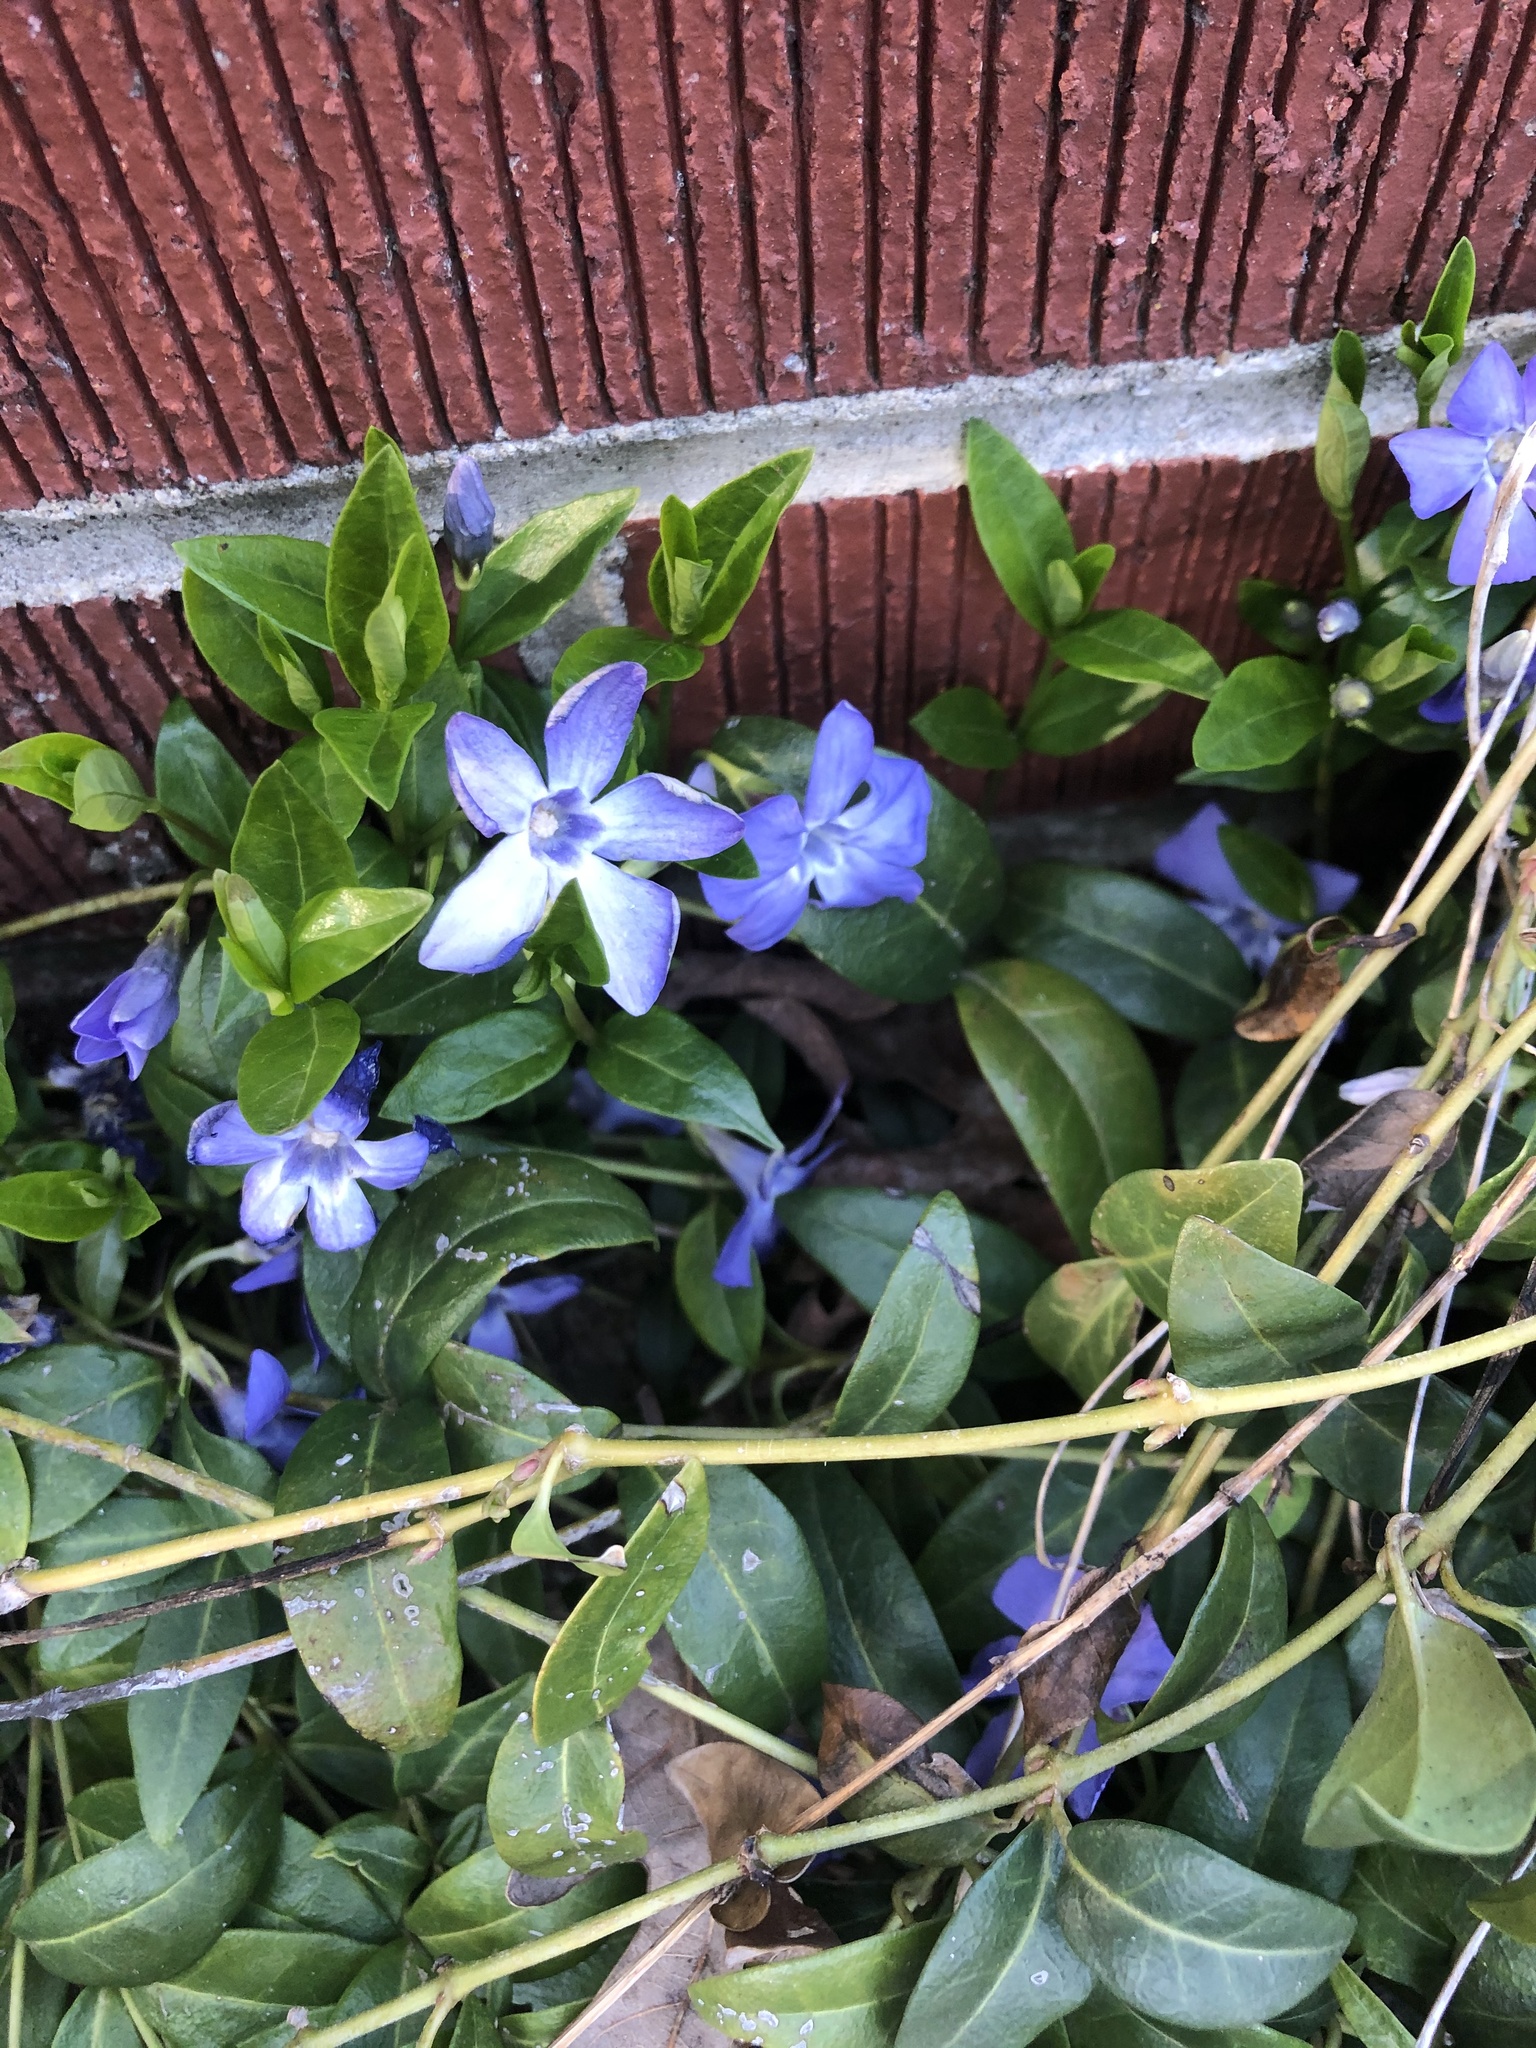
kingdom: Plantae
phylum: Tracheophyta
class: Magnoliopsida
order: Gentianales
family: Apocynaceae
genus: Vinca
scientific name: Vinca minor
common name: Lesser periwinkle
